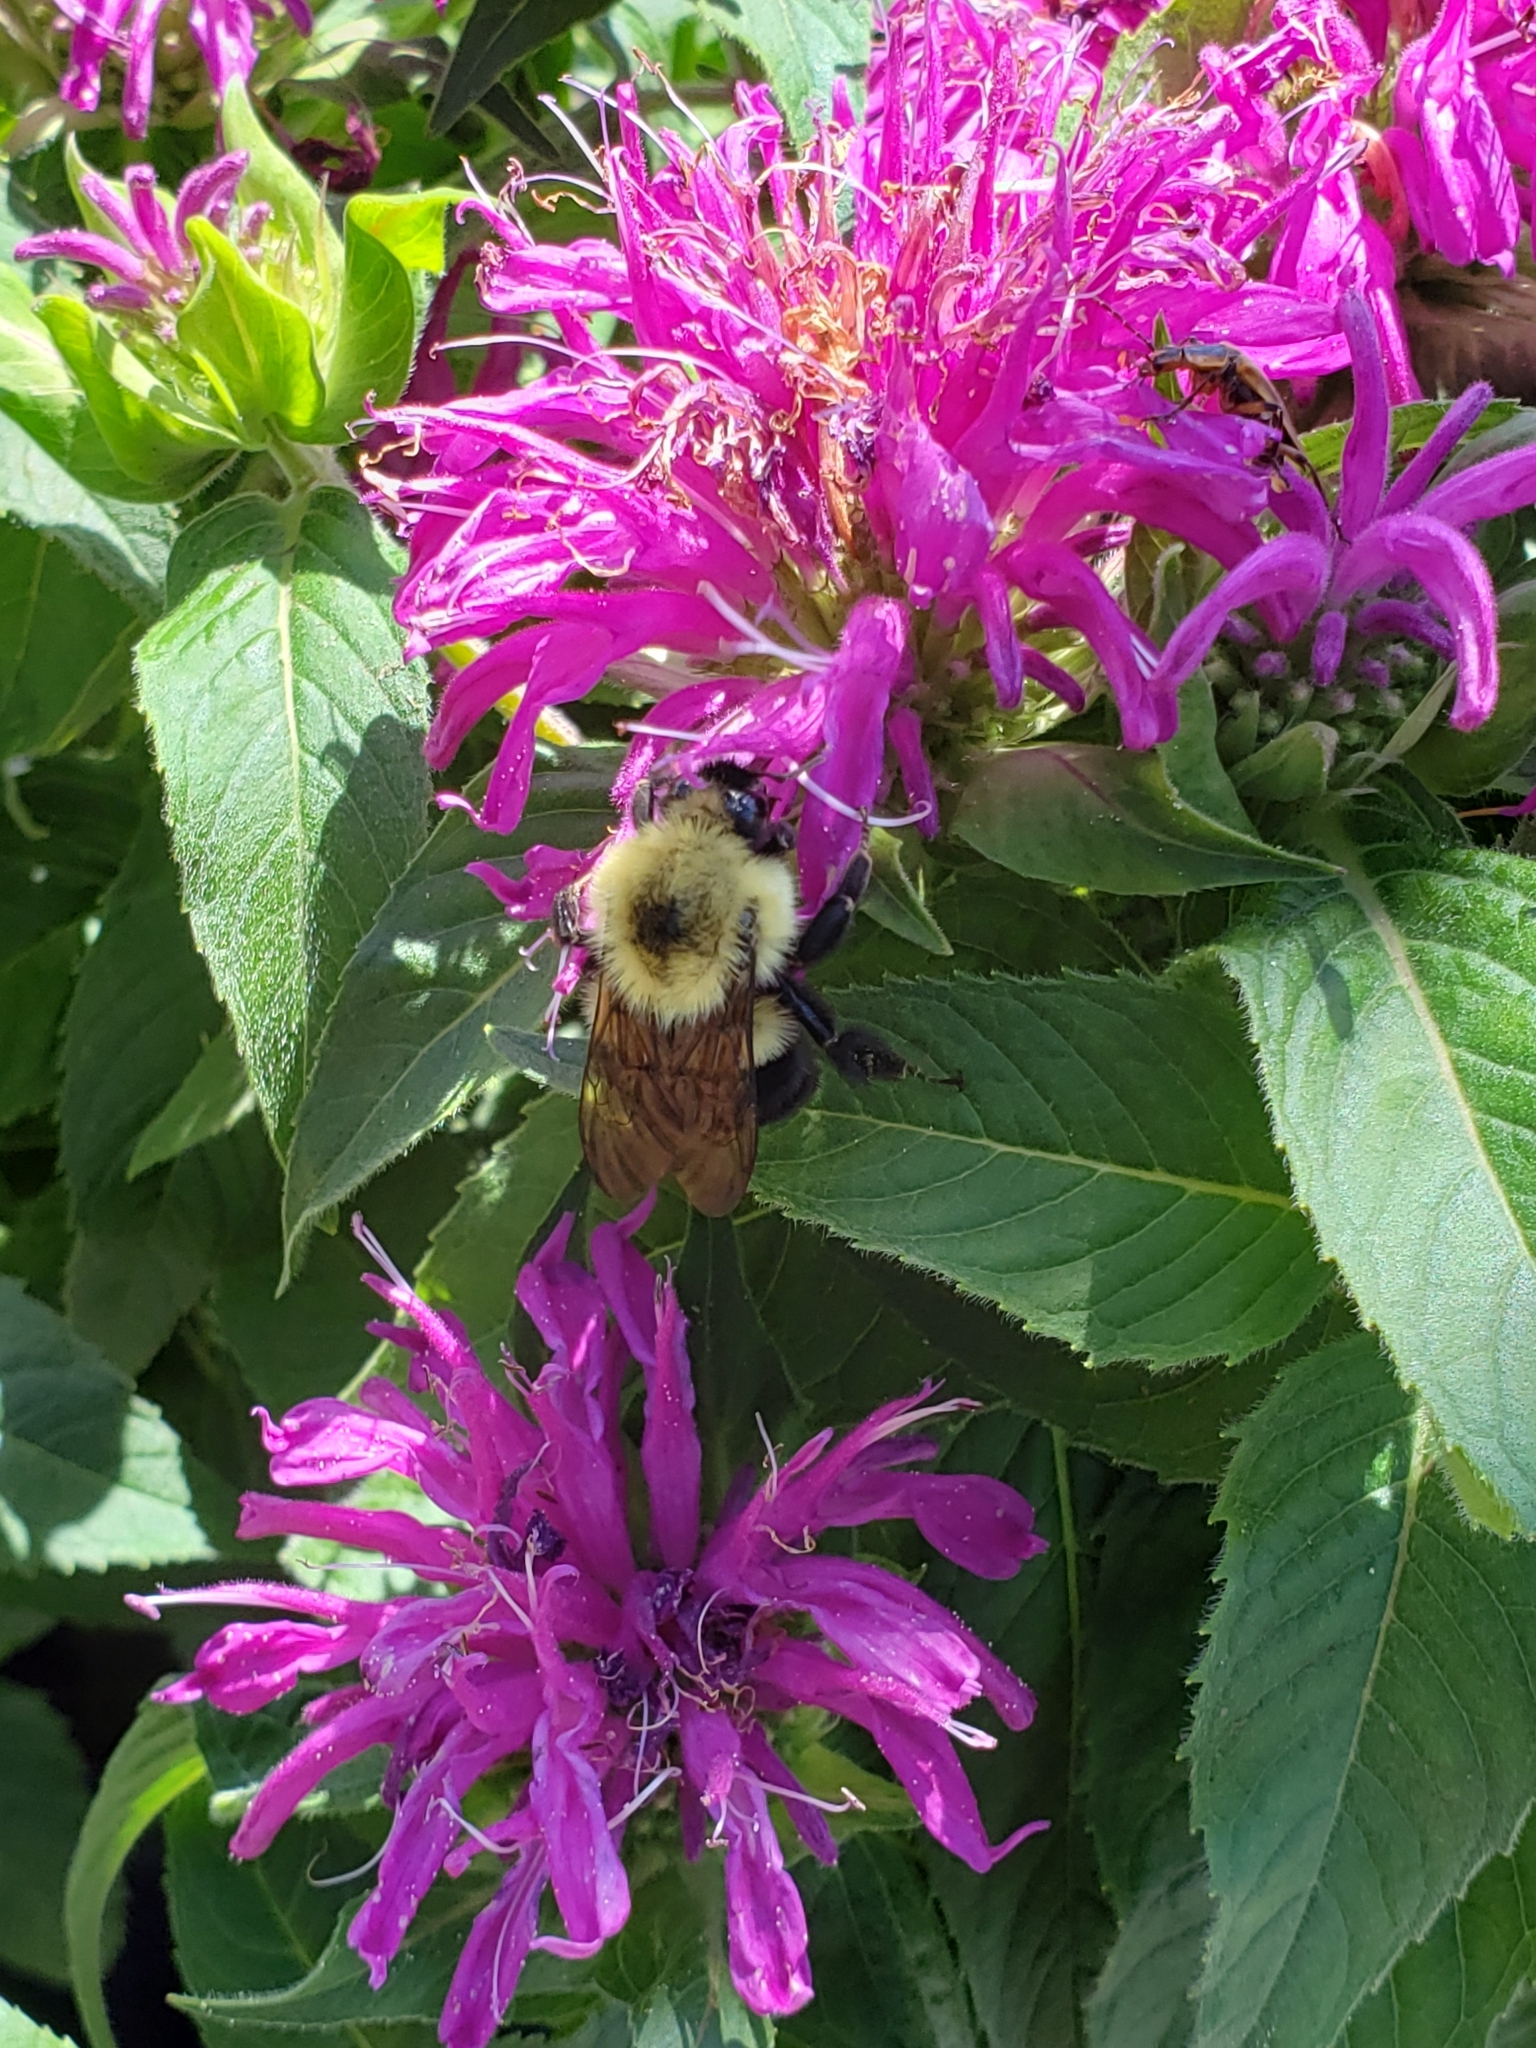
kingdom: Animalia
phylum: Arthropoda
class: Insecta
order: Hymenoptera
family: Apidae
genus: Bombus
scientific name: Bombus bimaculatus
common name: Two-spotted bumble bee
